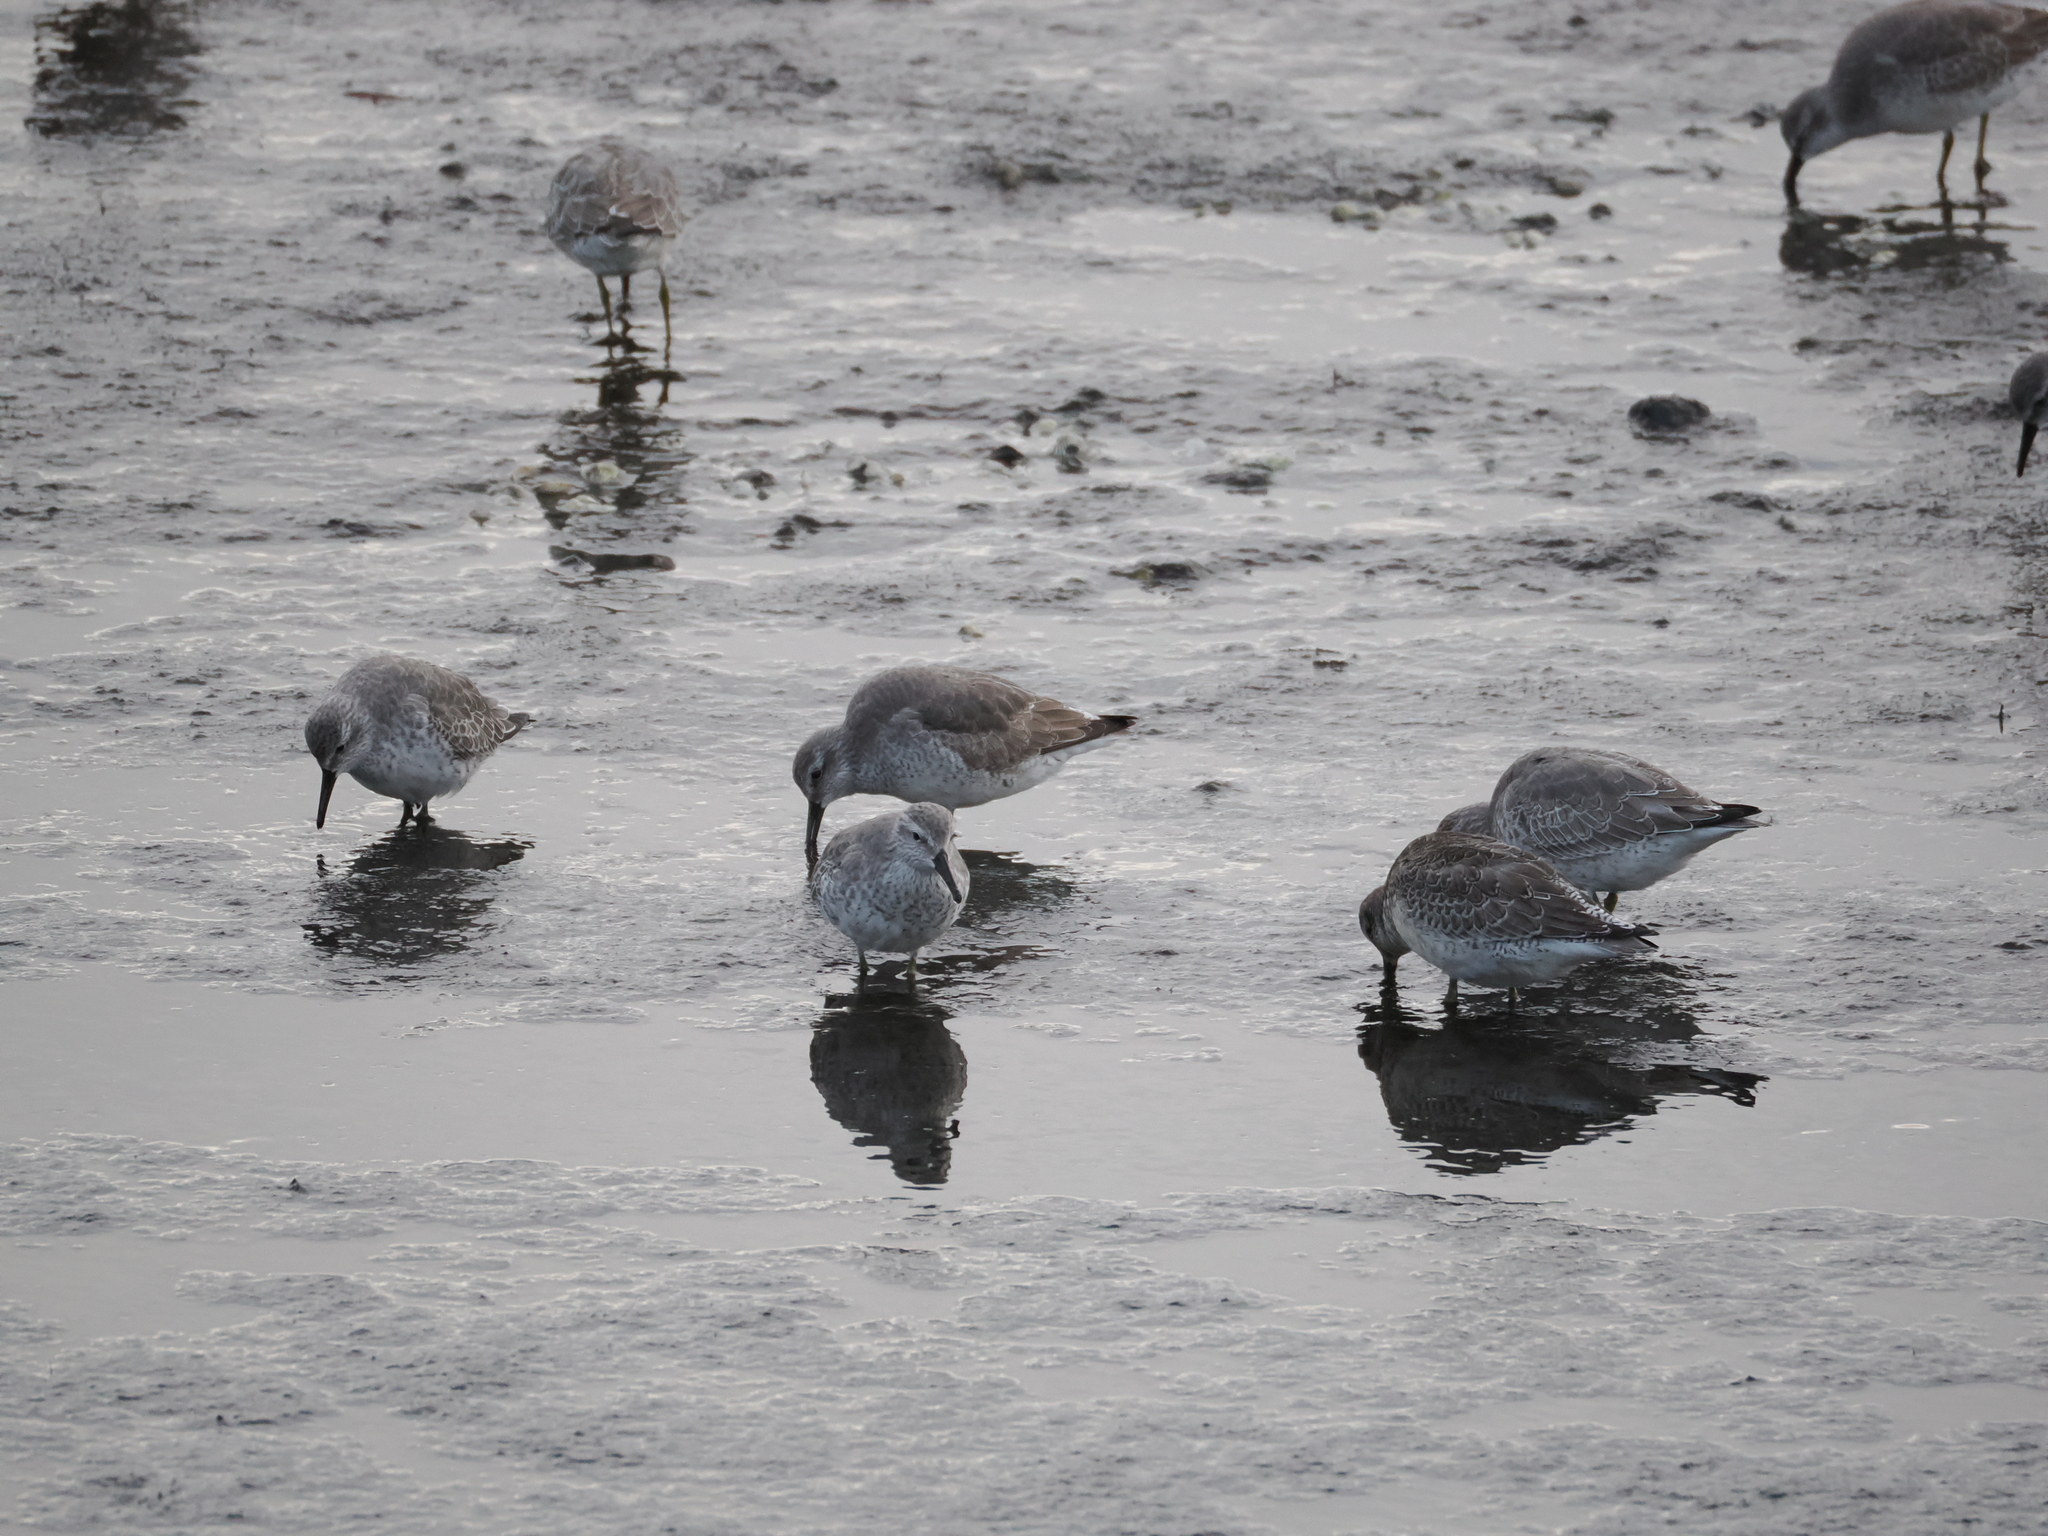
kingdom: Animalia
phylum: Chordata
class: Aves
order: Charadriiformes
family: Scolopacidae
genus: Calidris
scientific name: Calidris canutus
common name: Red knot
